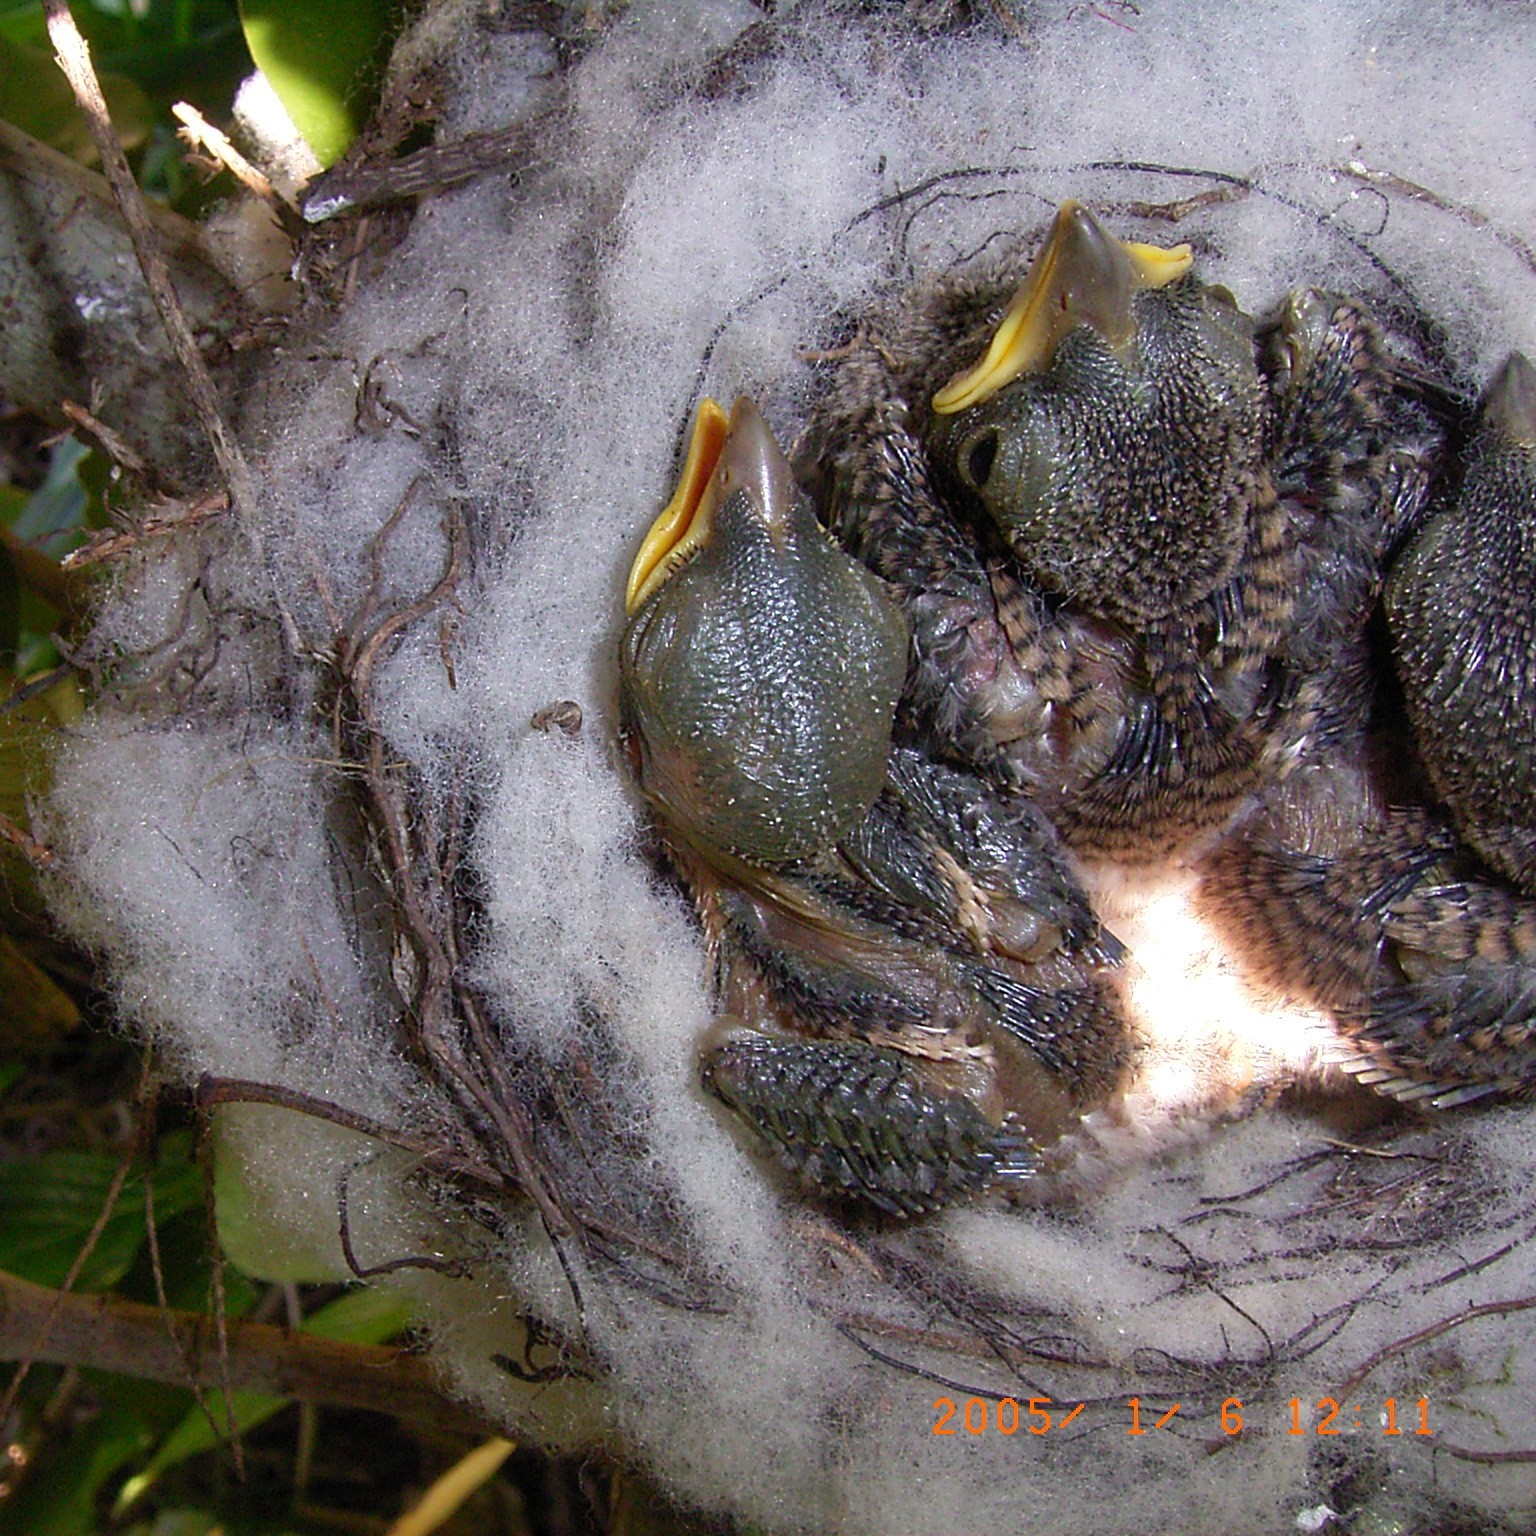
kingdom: Animalia
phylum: Chordata
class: Aves
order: Passeriformes
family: Laniidae
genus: Lanius
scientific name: Lanius collaris
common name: Southern fiscal
